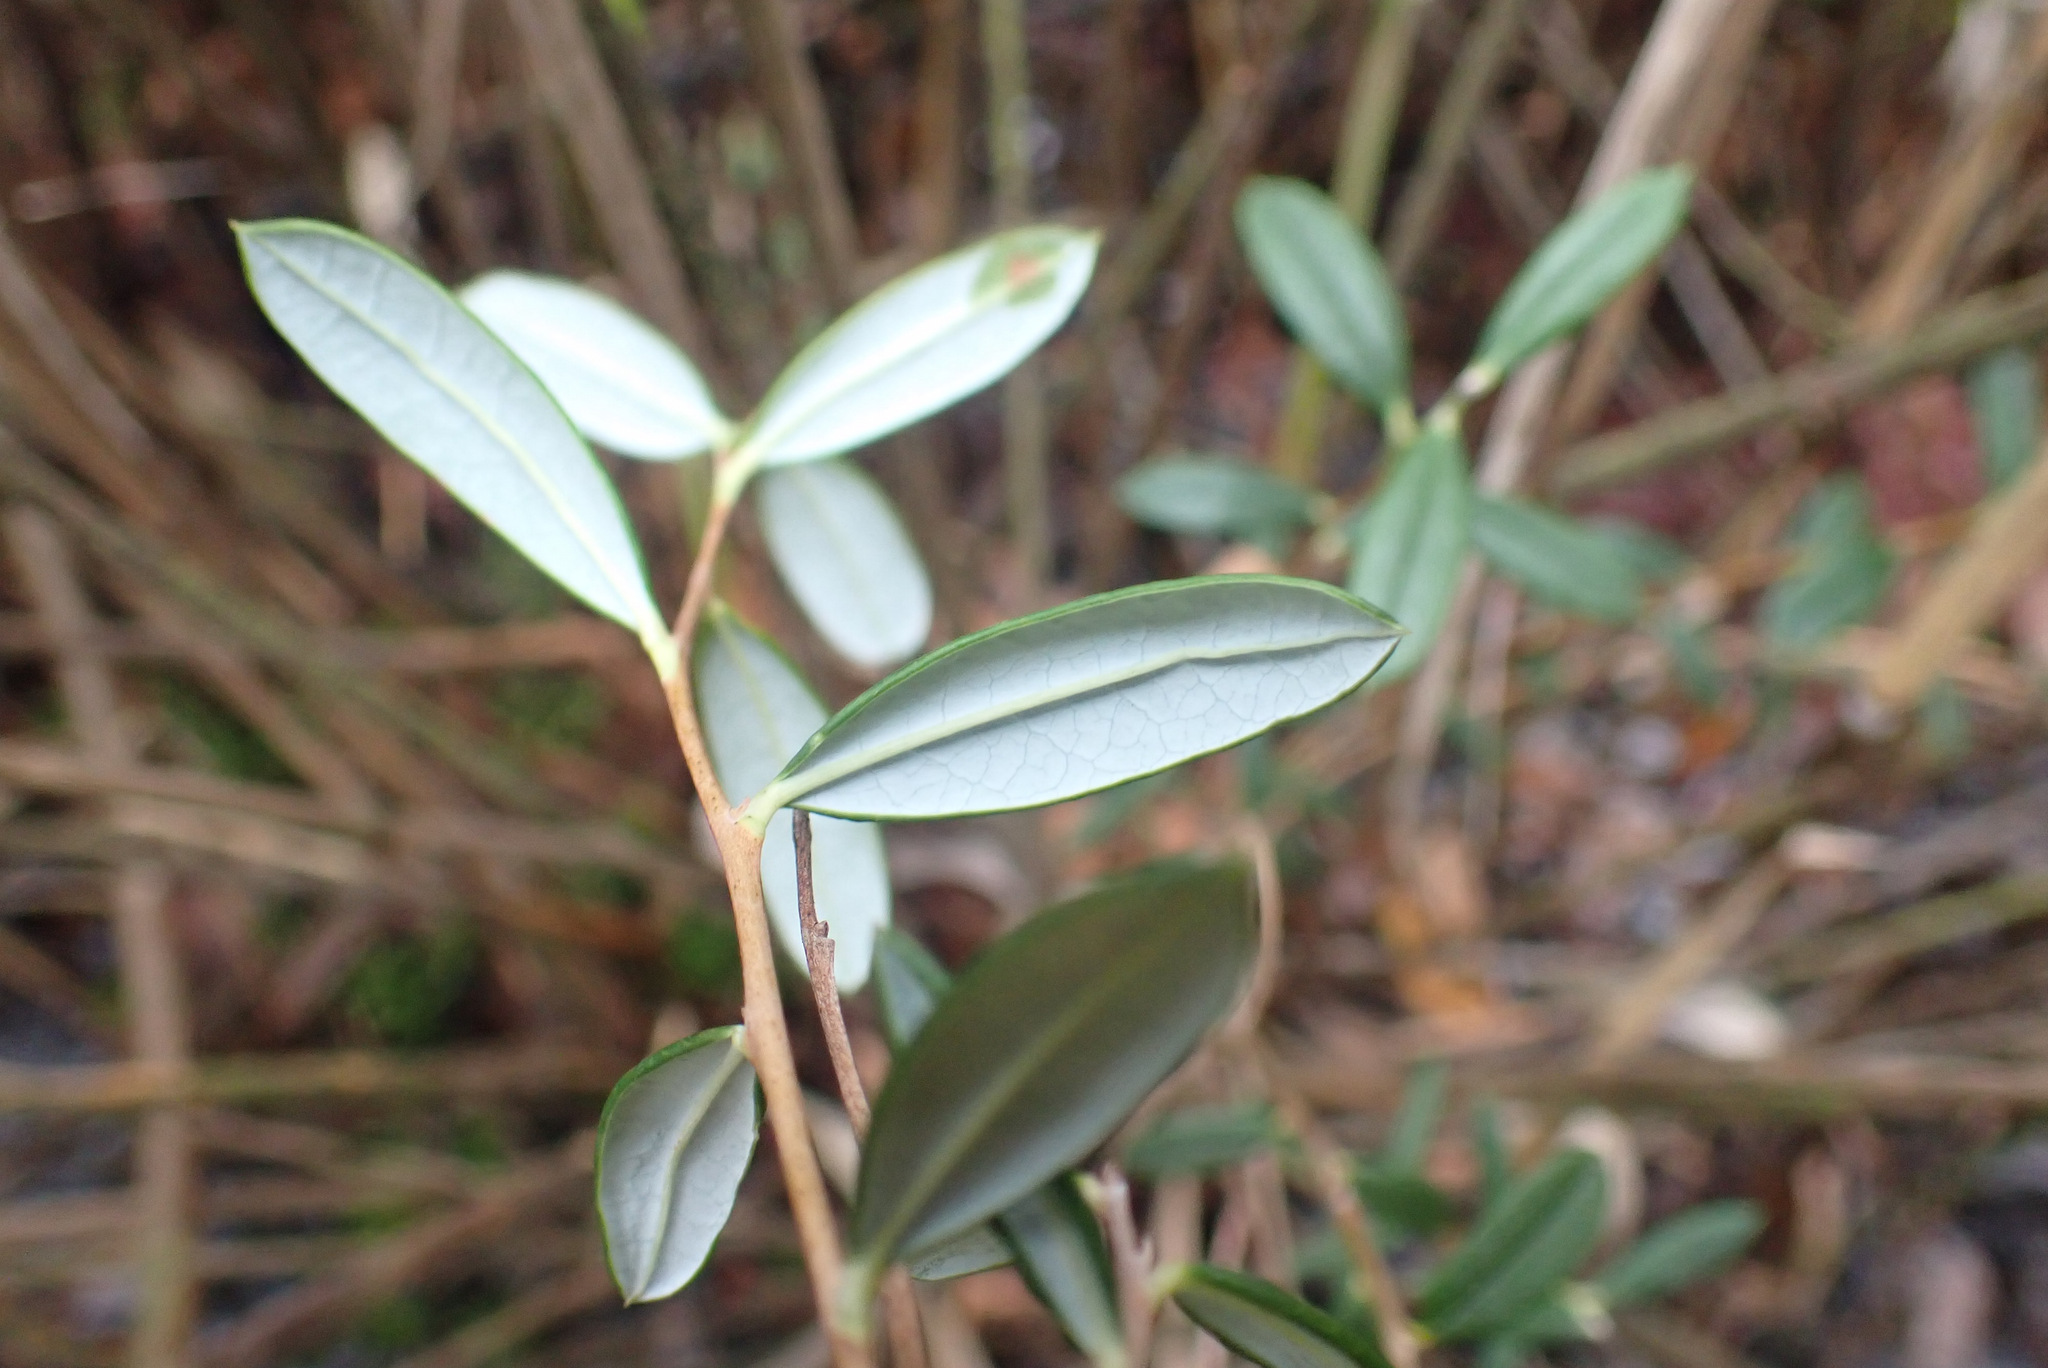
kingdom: Plantae
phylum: Tracheophyta
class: Magnoliopsida
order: Ericales
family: Ericaceae
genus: Andromeda
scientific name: Andromeda polifolia
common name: Bog-rosemary
